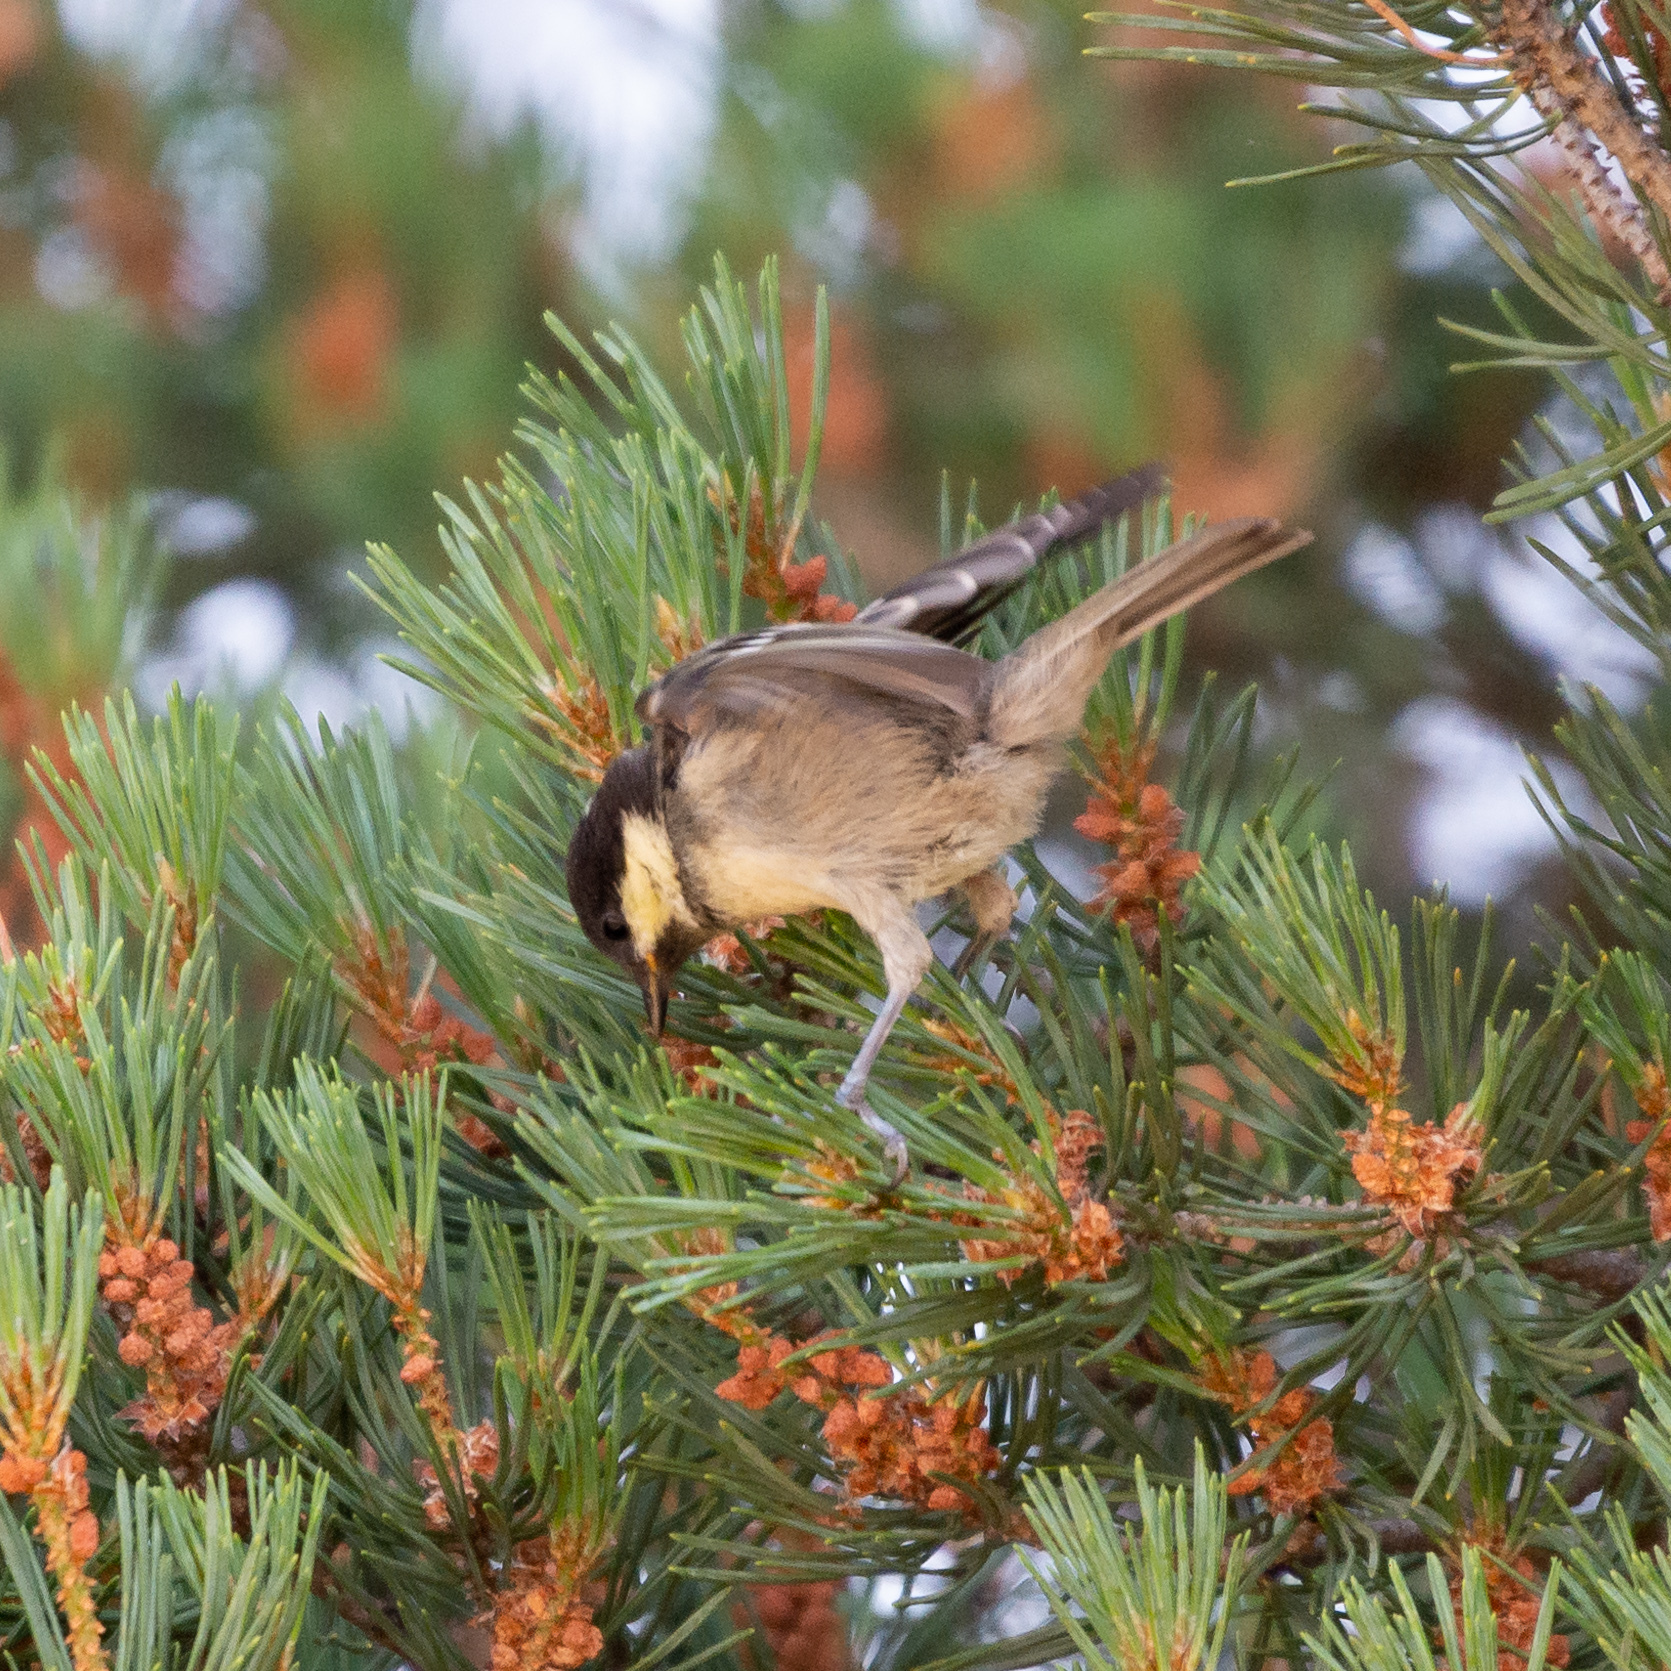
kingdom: Animalia
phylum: Chordata
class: Aves
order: Passeriformes
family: Paridae
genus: Periparus
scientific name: Periparus ater
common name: Coal tit
